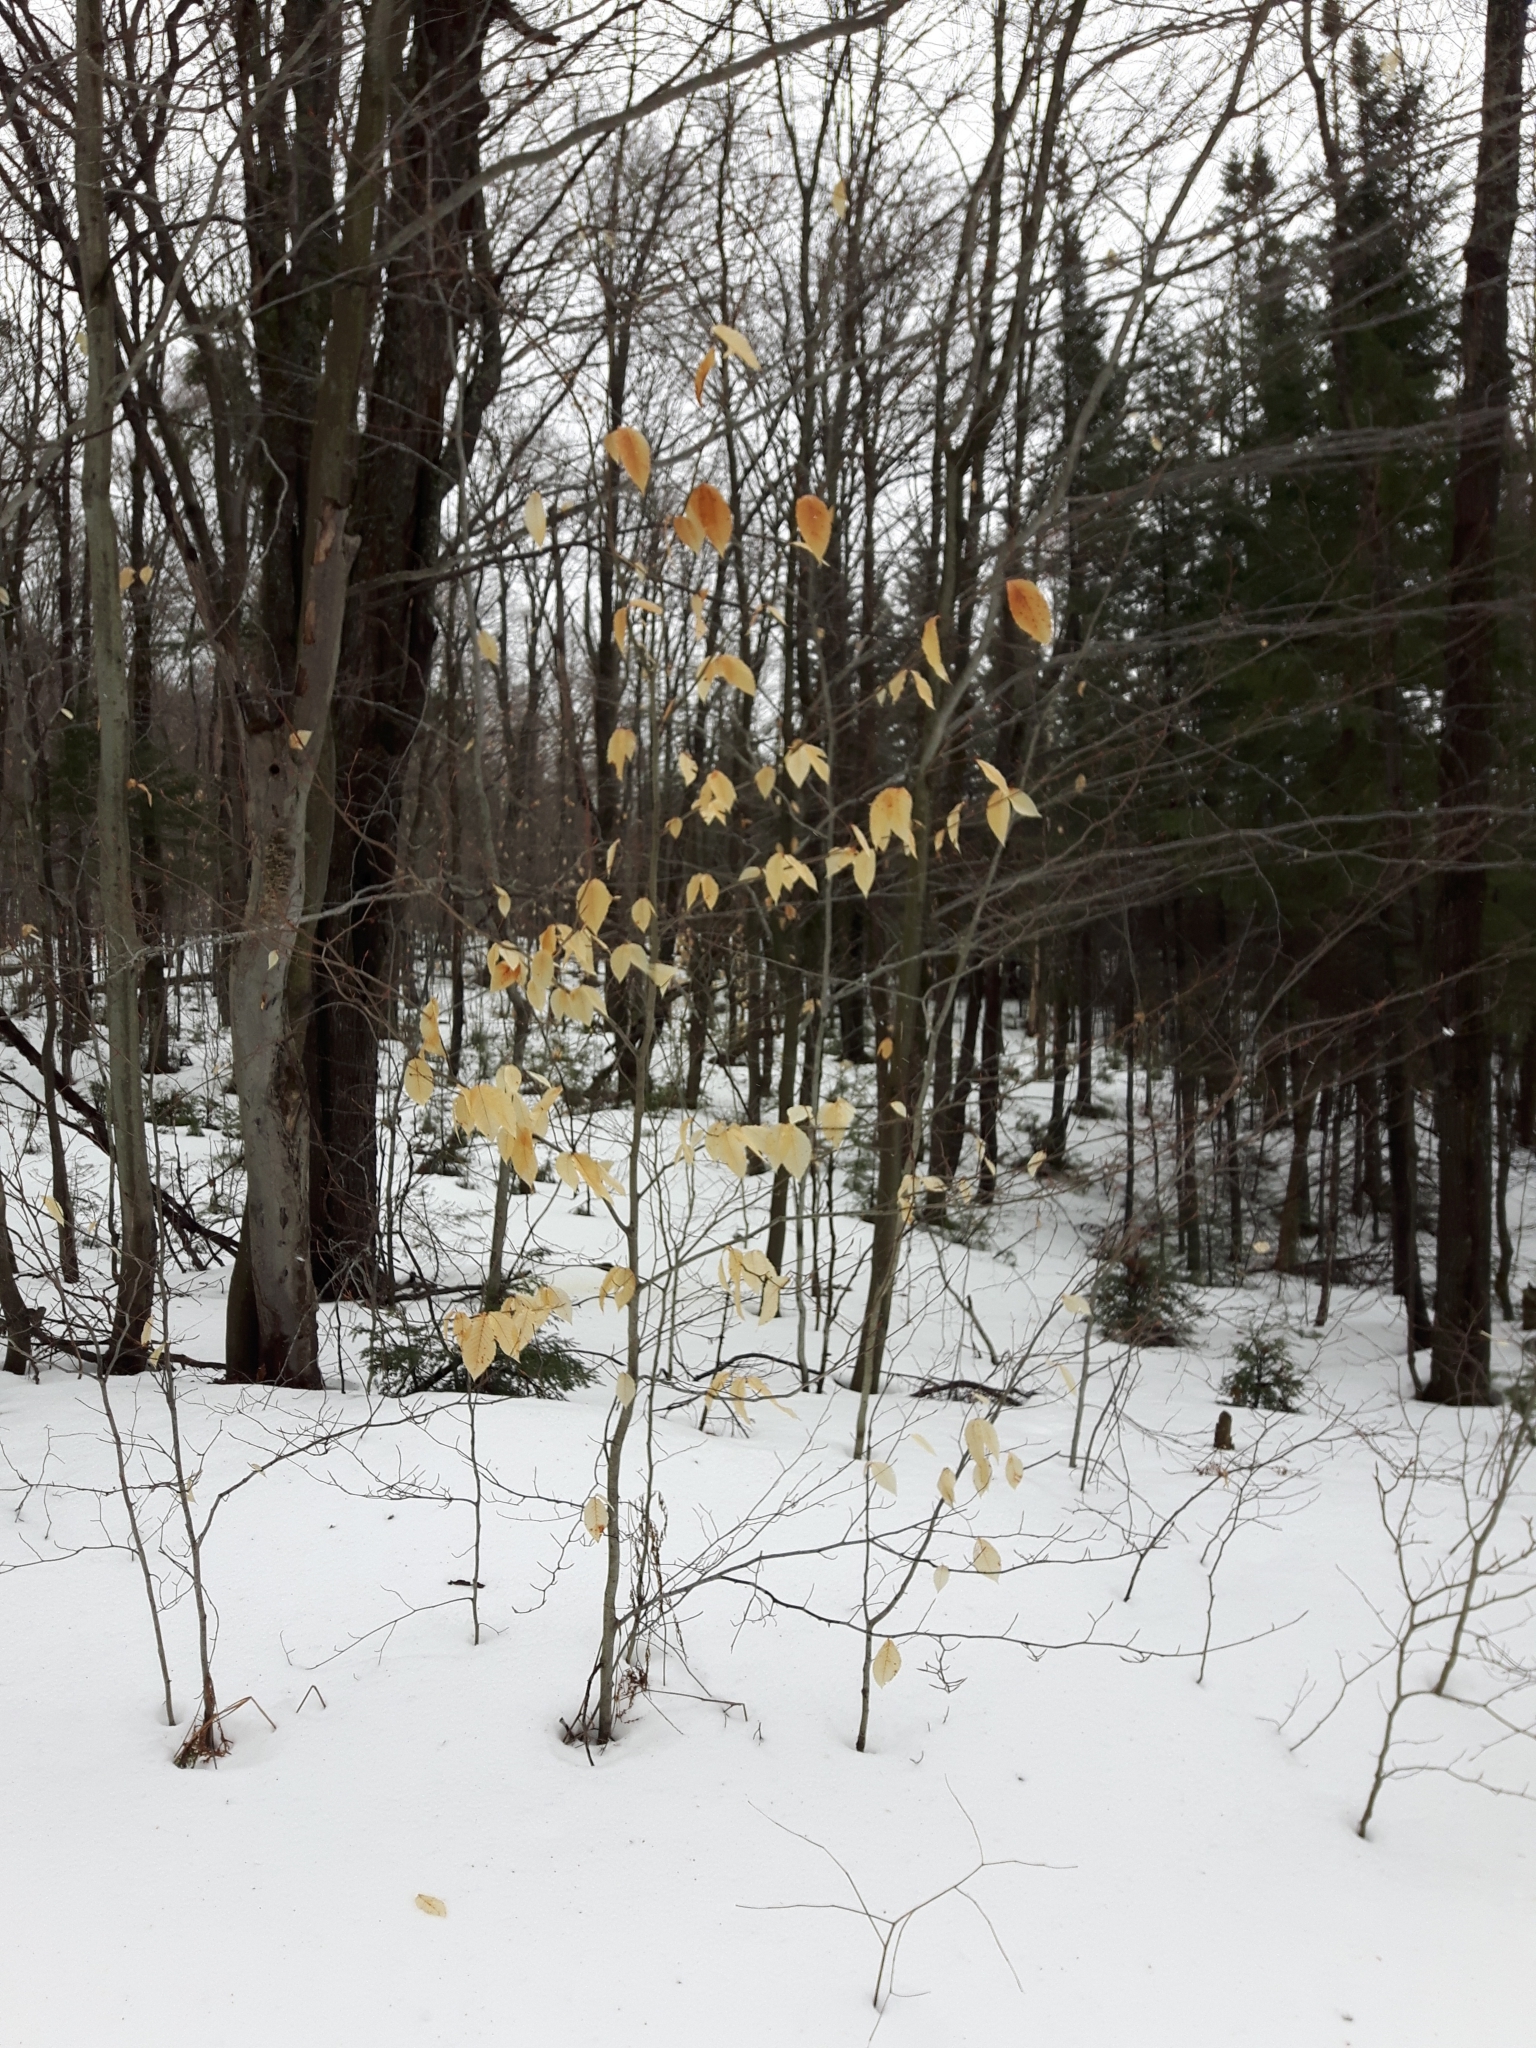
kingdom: Plantae
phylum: Tracheophyta
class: Magnoliopsida
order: Fagales
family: Fagaceae
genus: Fagus
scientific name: Fagus grandifolia
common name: American beech
